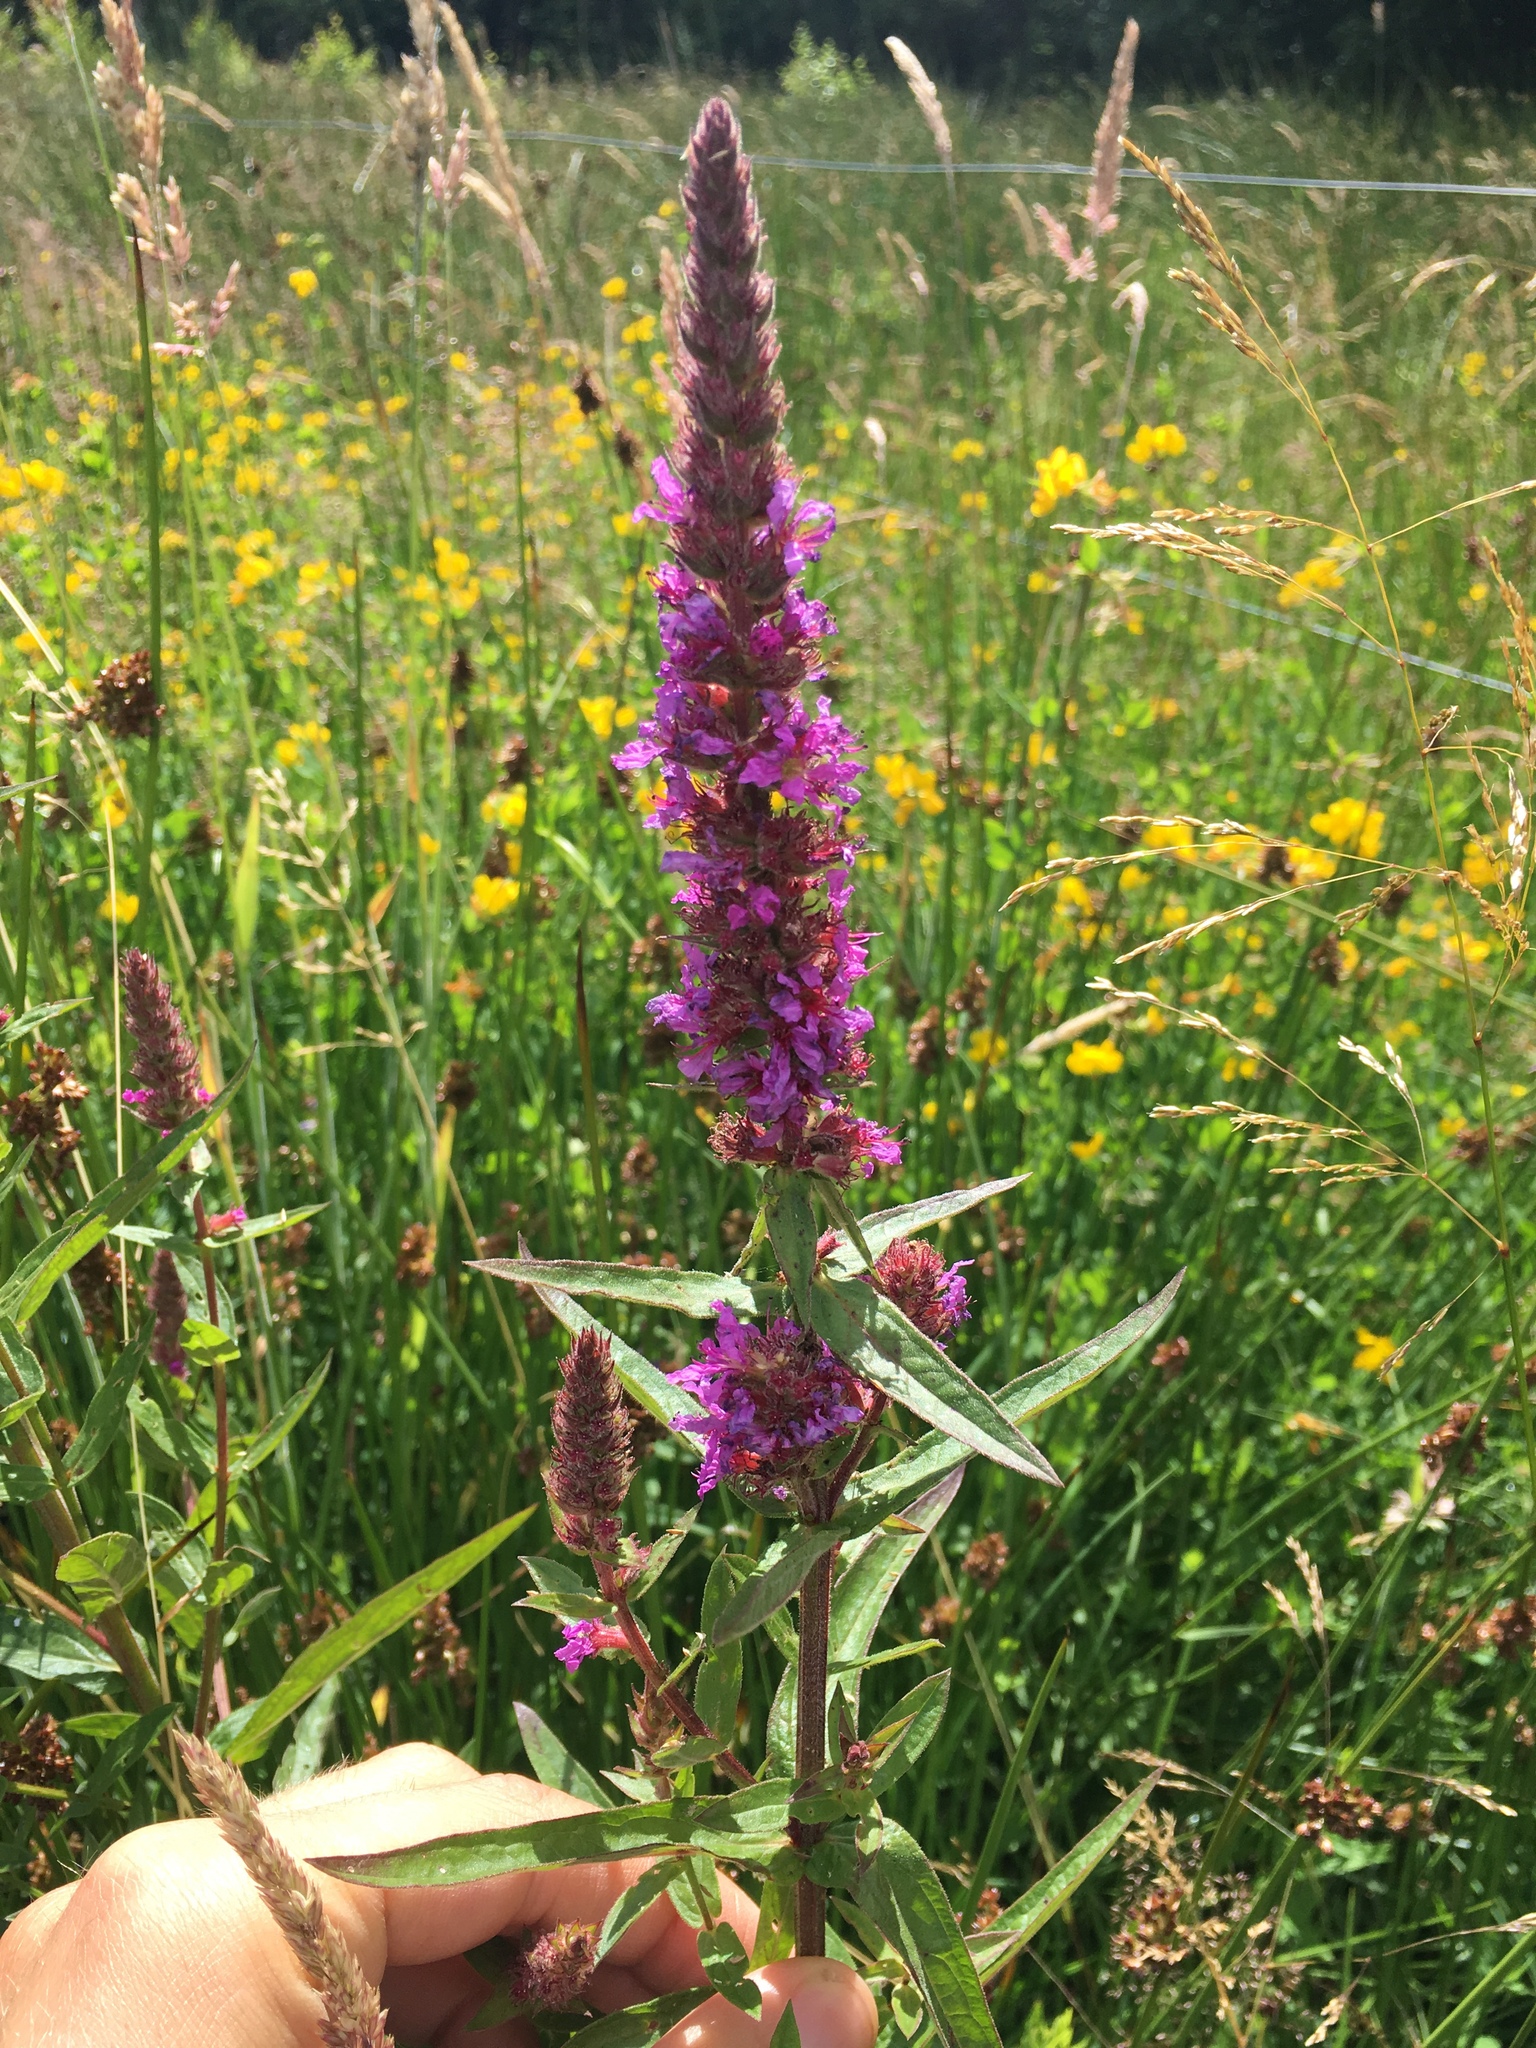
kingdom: Plantae
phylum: Tracheophyta
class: Magnoliopsida
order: Myrtales
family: Lythraceae
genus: Lythrum
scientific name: Lythrum salicaria
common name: Purple loosestrife
